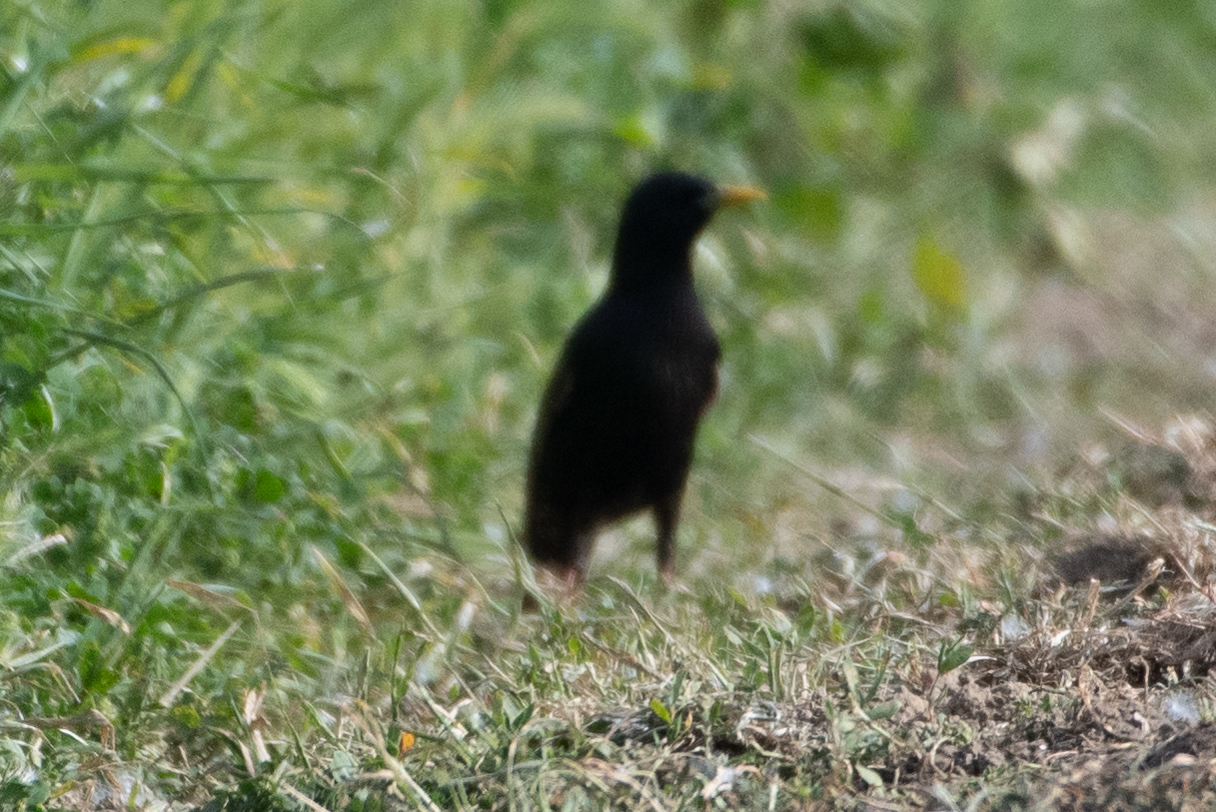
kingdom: Animalia
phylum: Chordata
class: Aves
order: Passeriformes
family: Sturnidae
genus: Sturnus
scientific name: Sturnus vulgaris
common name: Common starling
